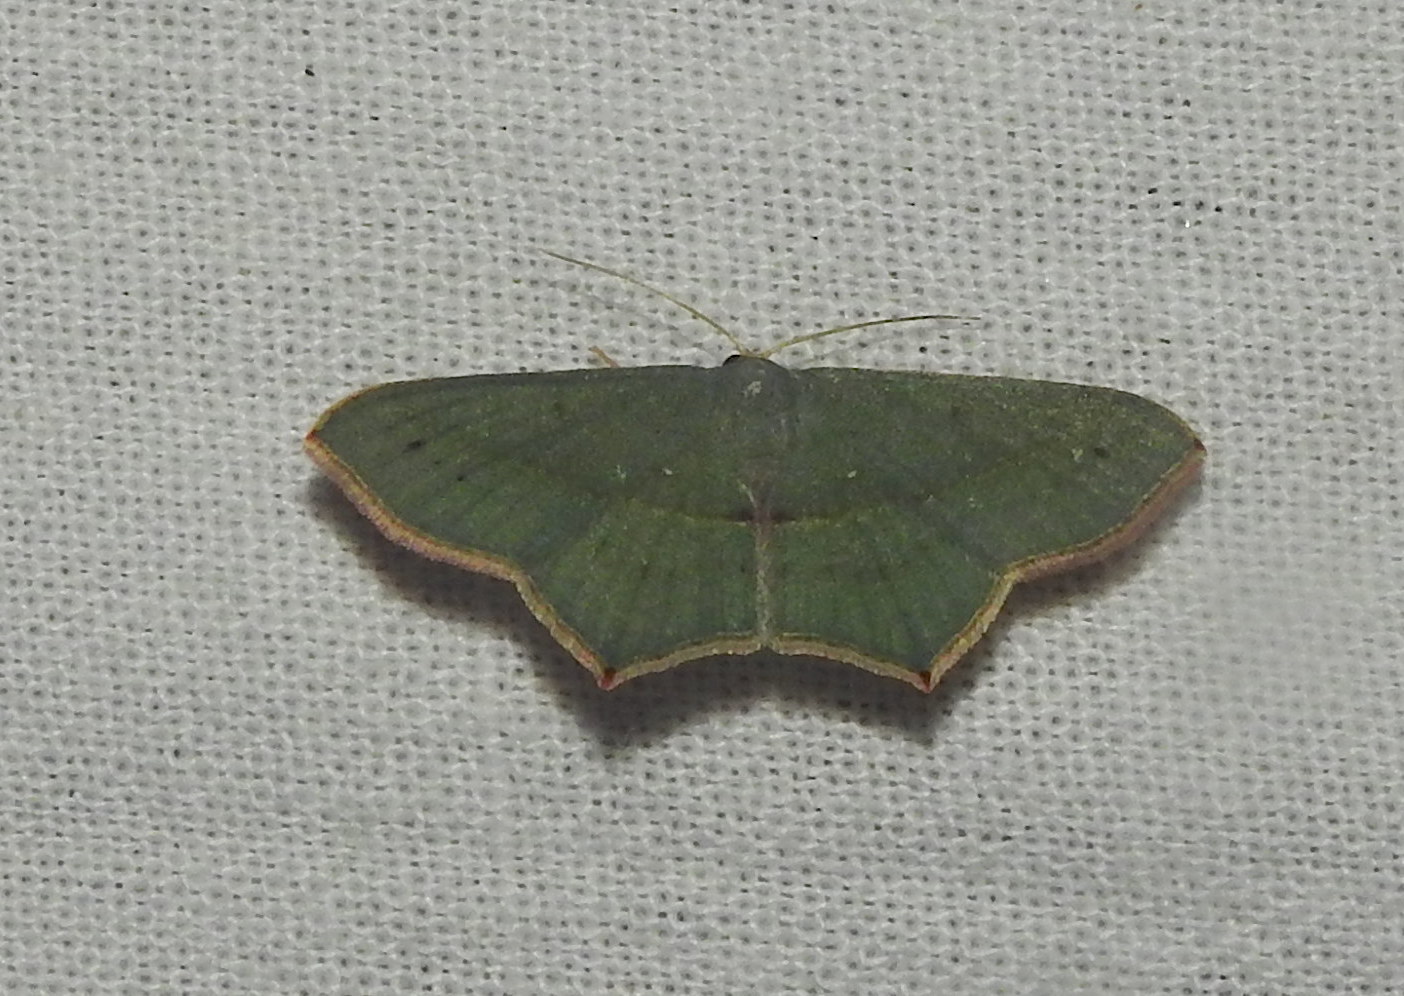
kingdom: Animalia
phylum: Arthropoda
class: Insecta
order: Lepidoptera
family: Geometridae
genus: Traminda
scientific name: Traminda mundissima
